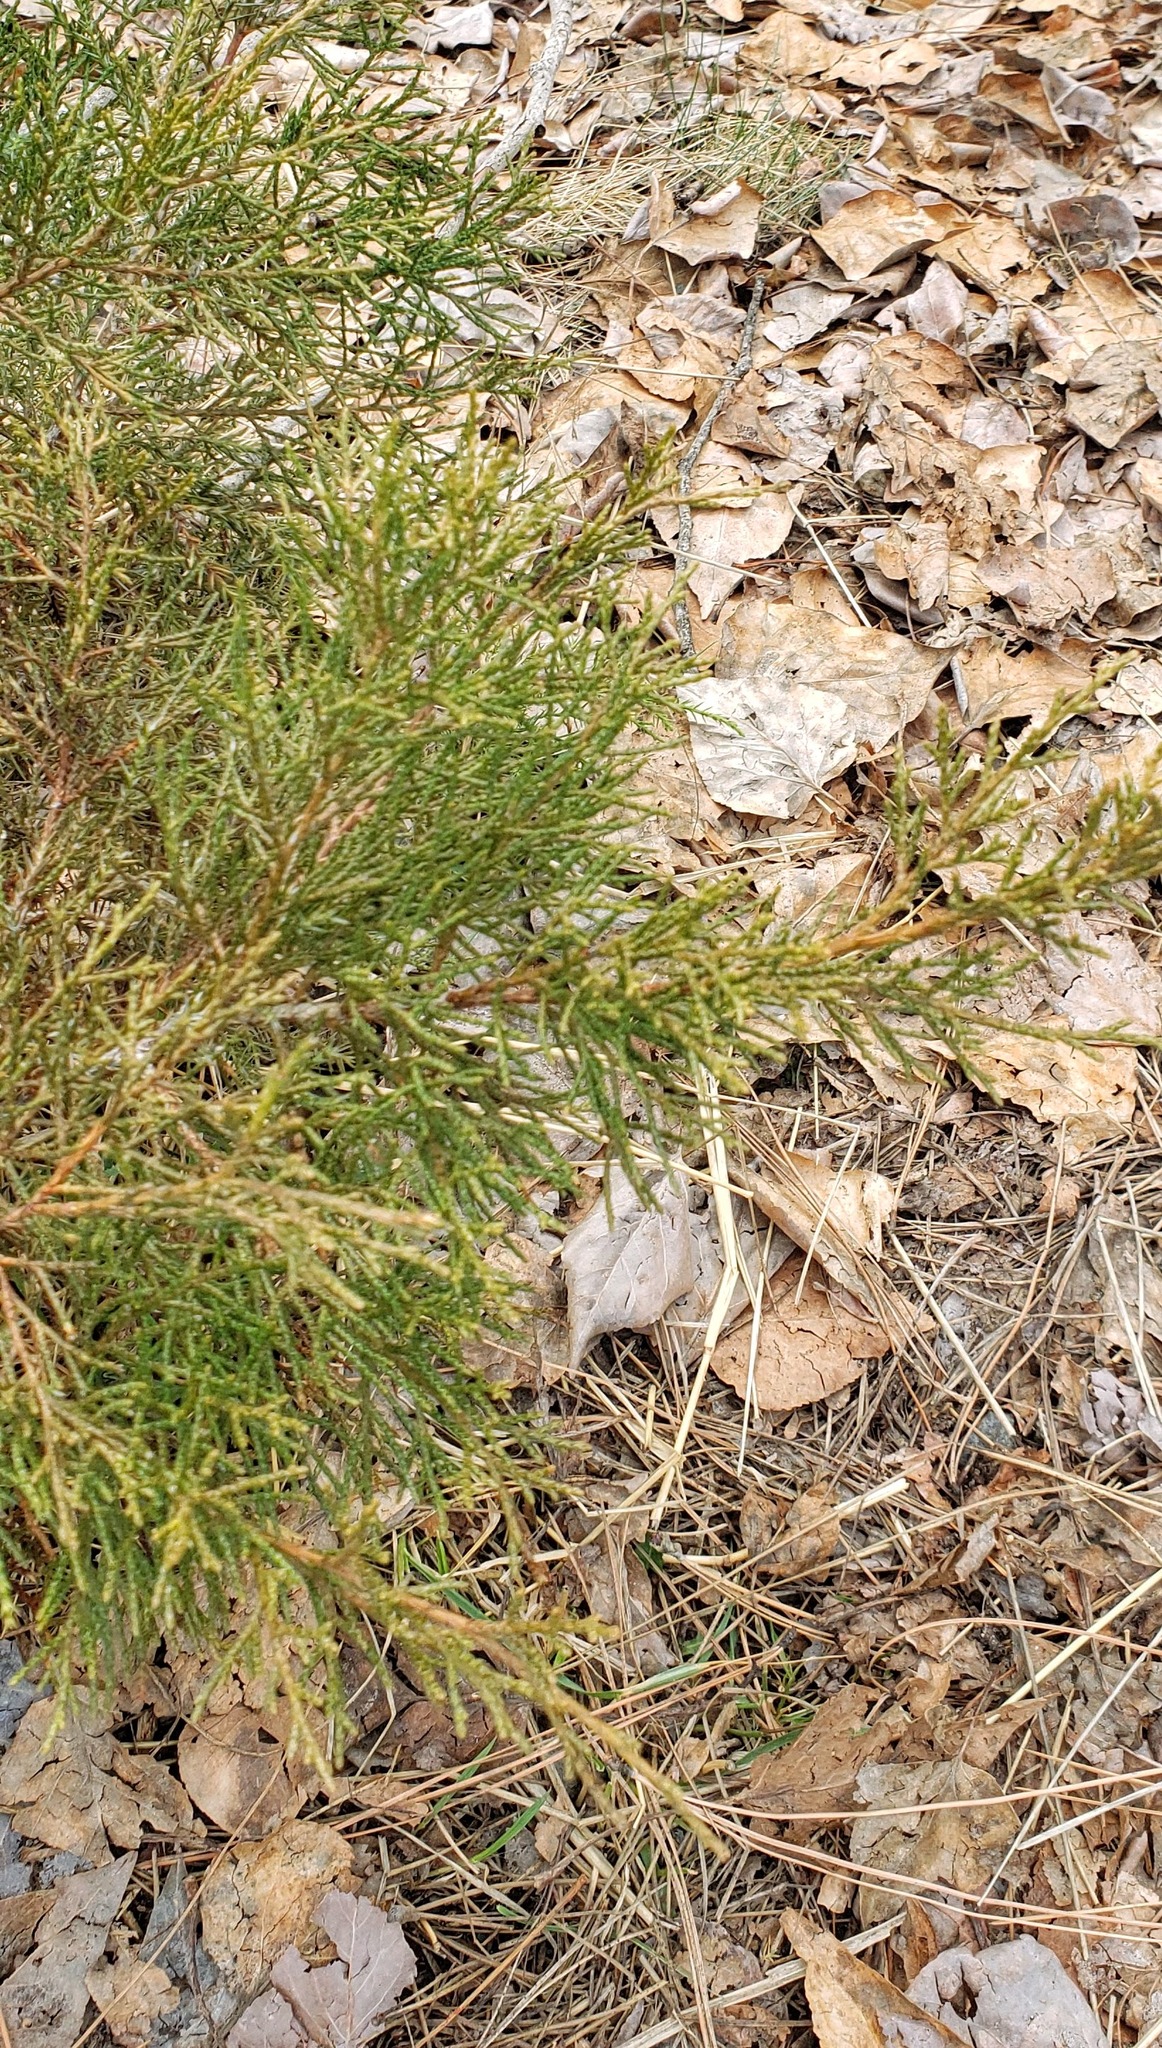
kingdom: Plantae
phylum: Tracheophyta
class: Pinopsida
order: Pinales
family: Cupressaceae
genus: Juniperus
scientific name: Juniperus scopulorum
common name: Rocky mountain juniper
